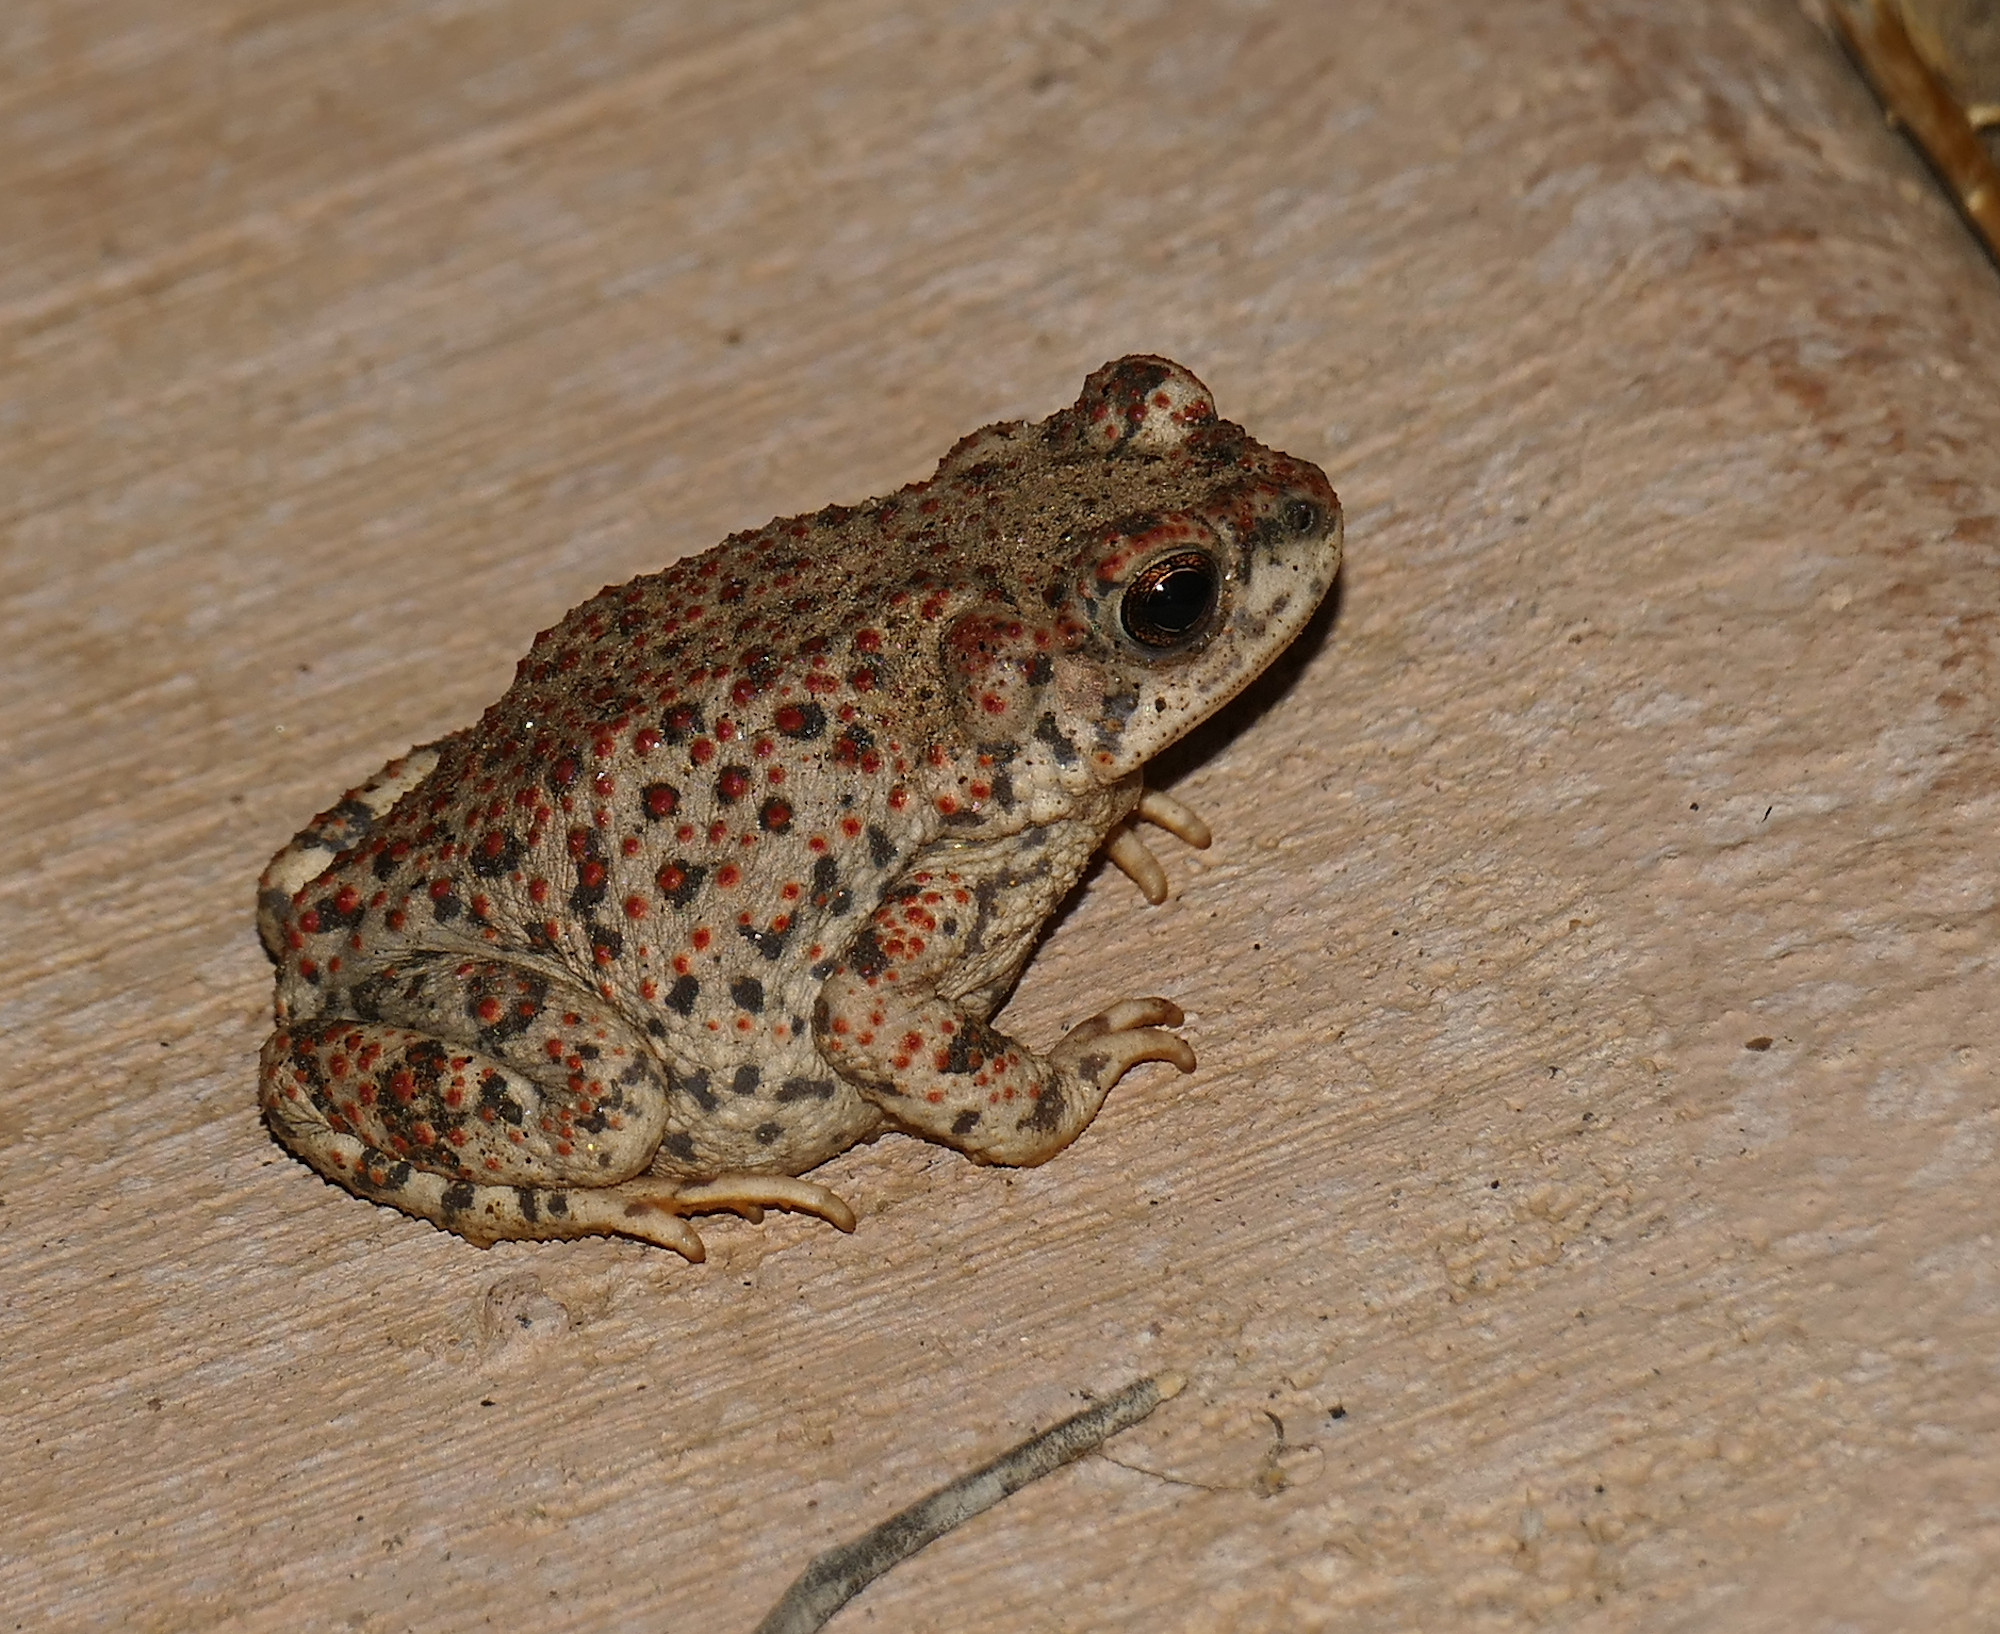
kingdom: Animalia
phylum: Chordata
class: Amphibia
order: Anura
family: Bufonidae
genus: Anaxyrus
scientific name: Anaxyrus punctatus
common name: Red-spotted toad
